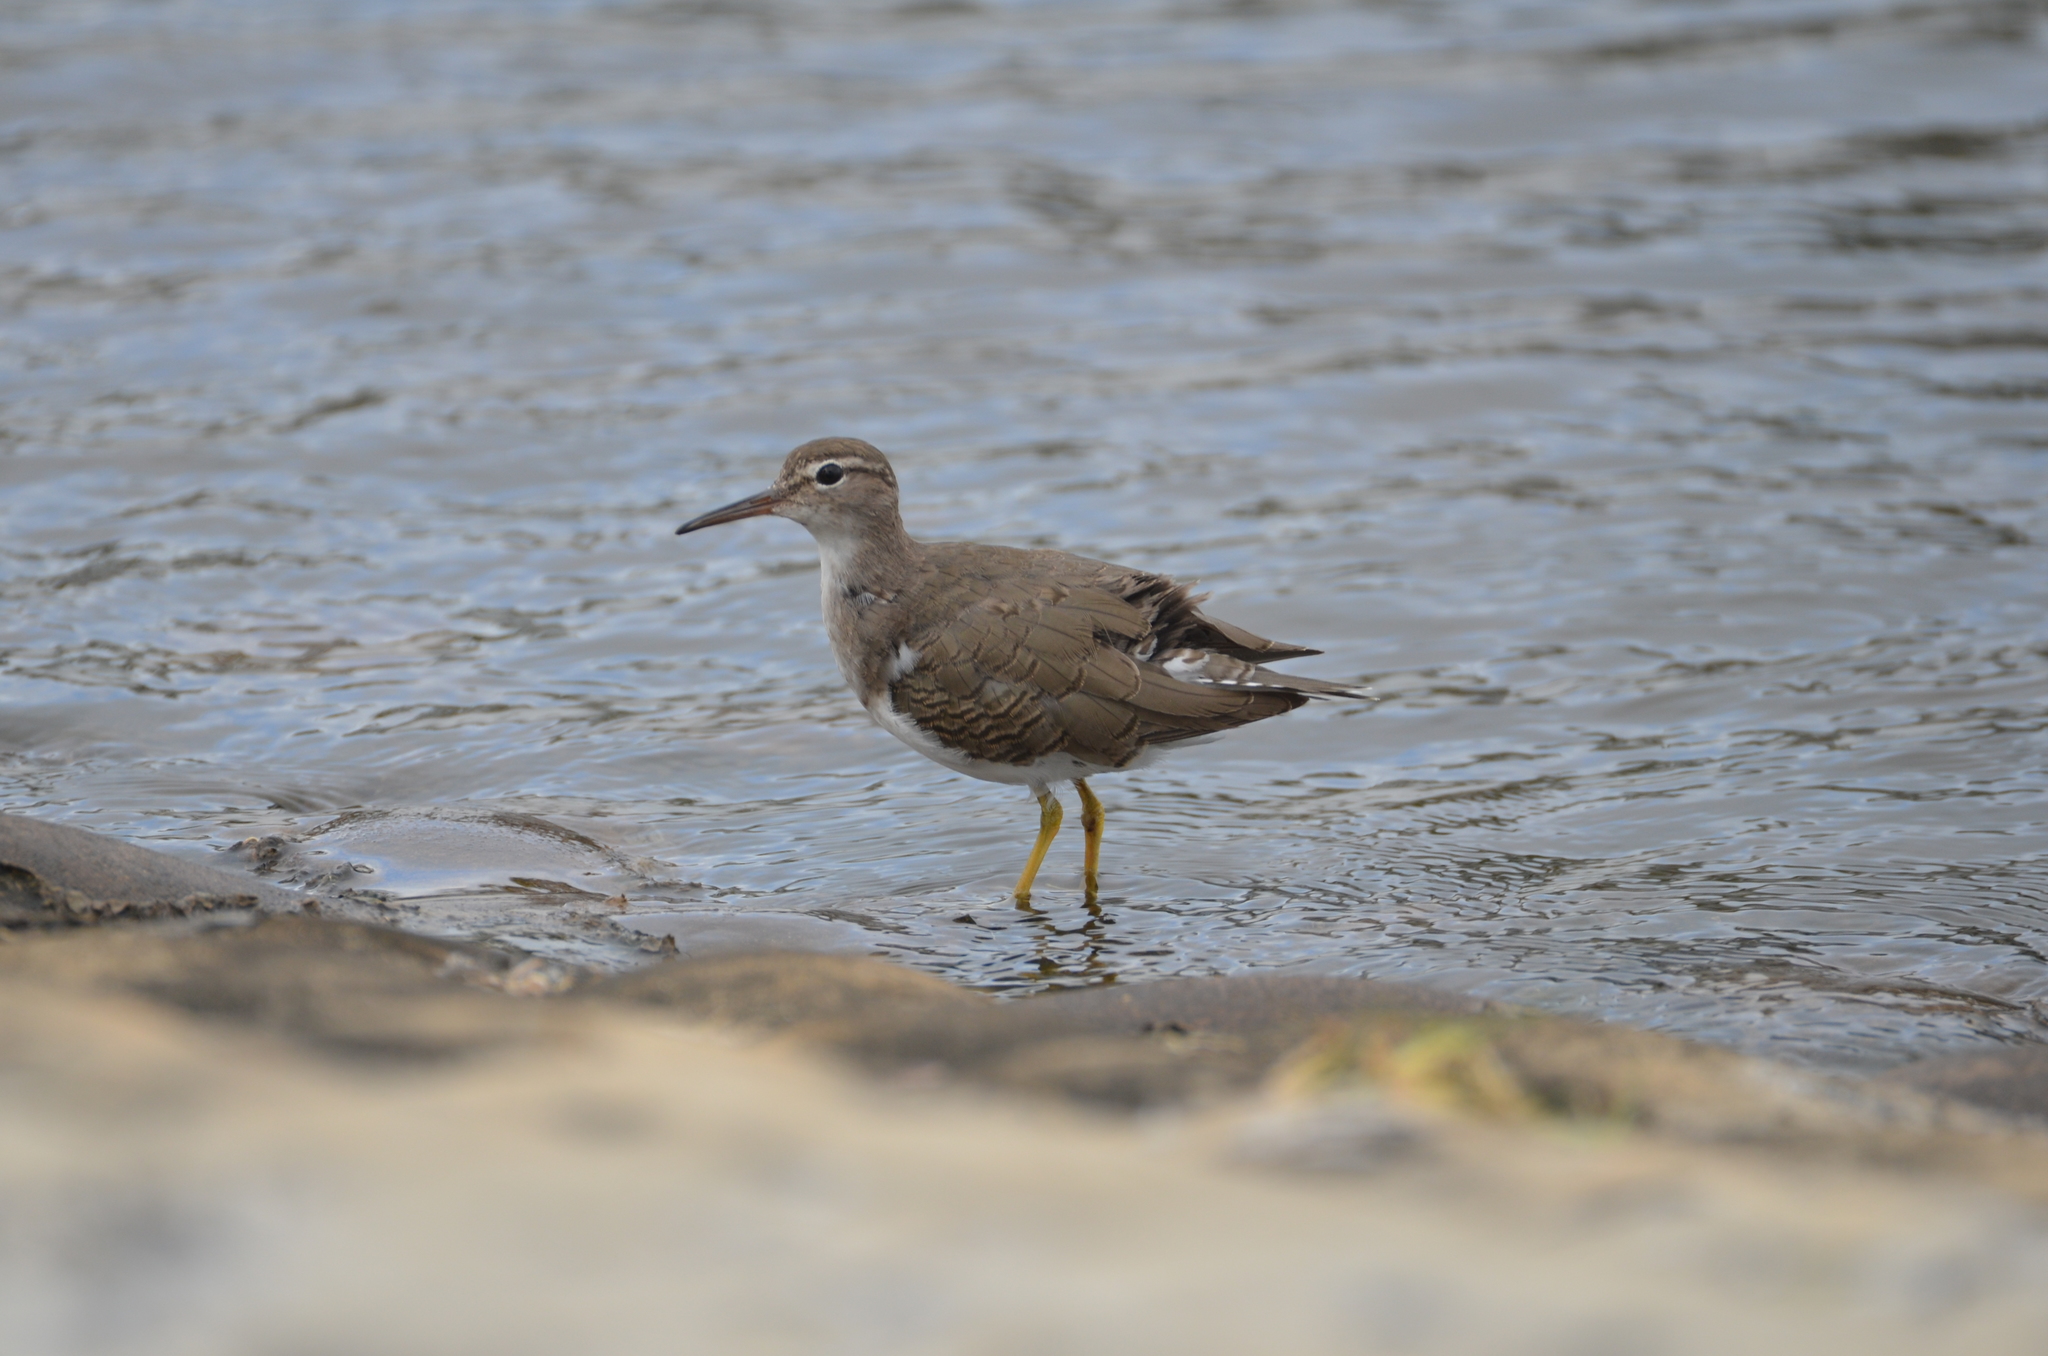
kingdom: Animalia
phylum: Chordata
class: Aves
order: Charadriiformes
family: Scolopacidae
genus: Actitis
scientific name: Actitis macularius
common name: Spotted sandpiper
